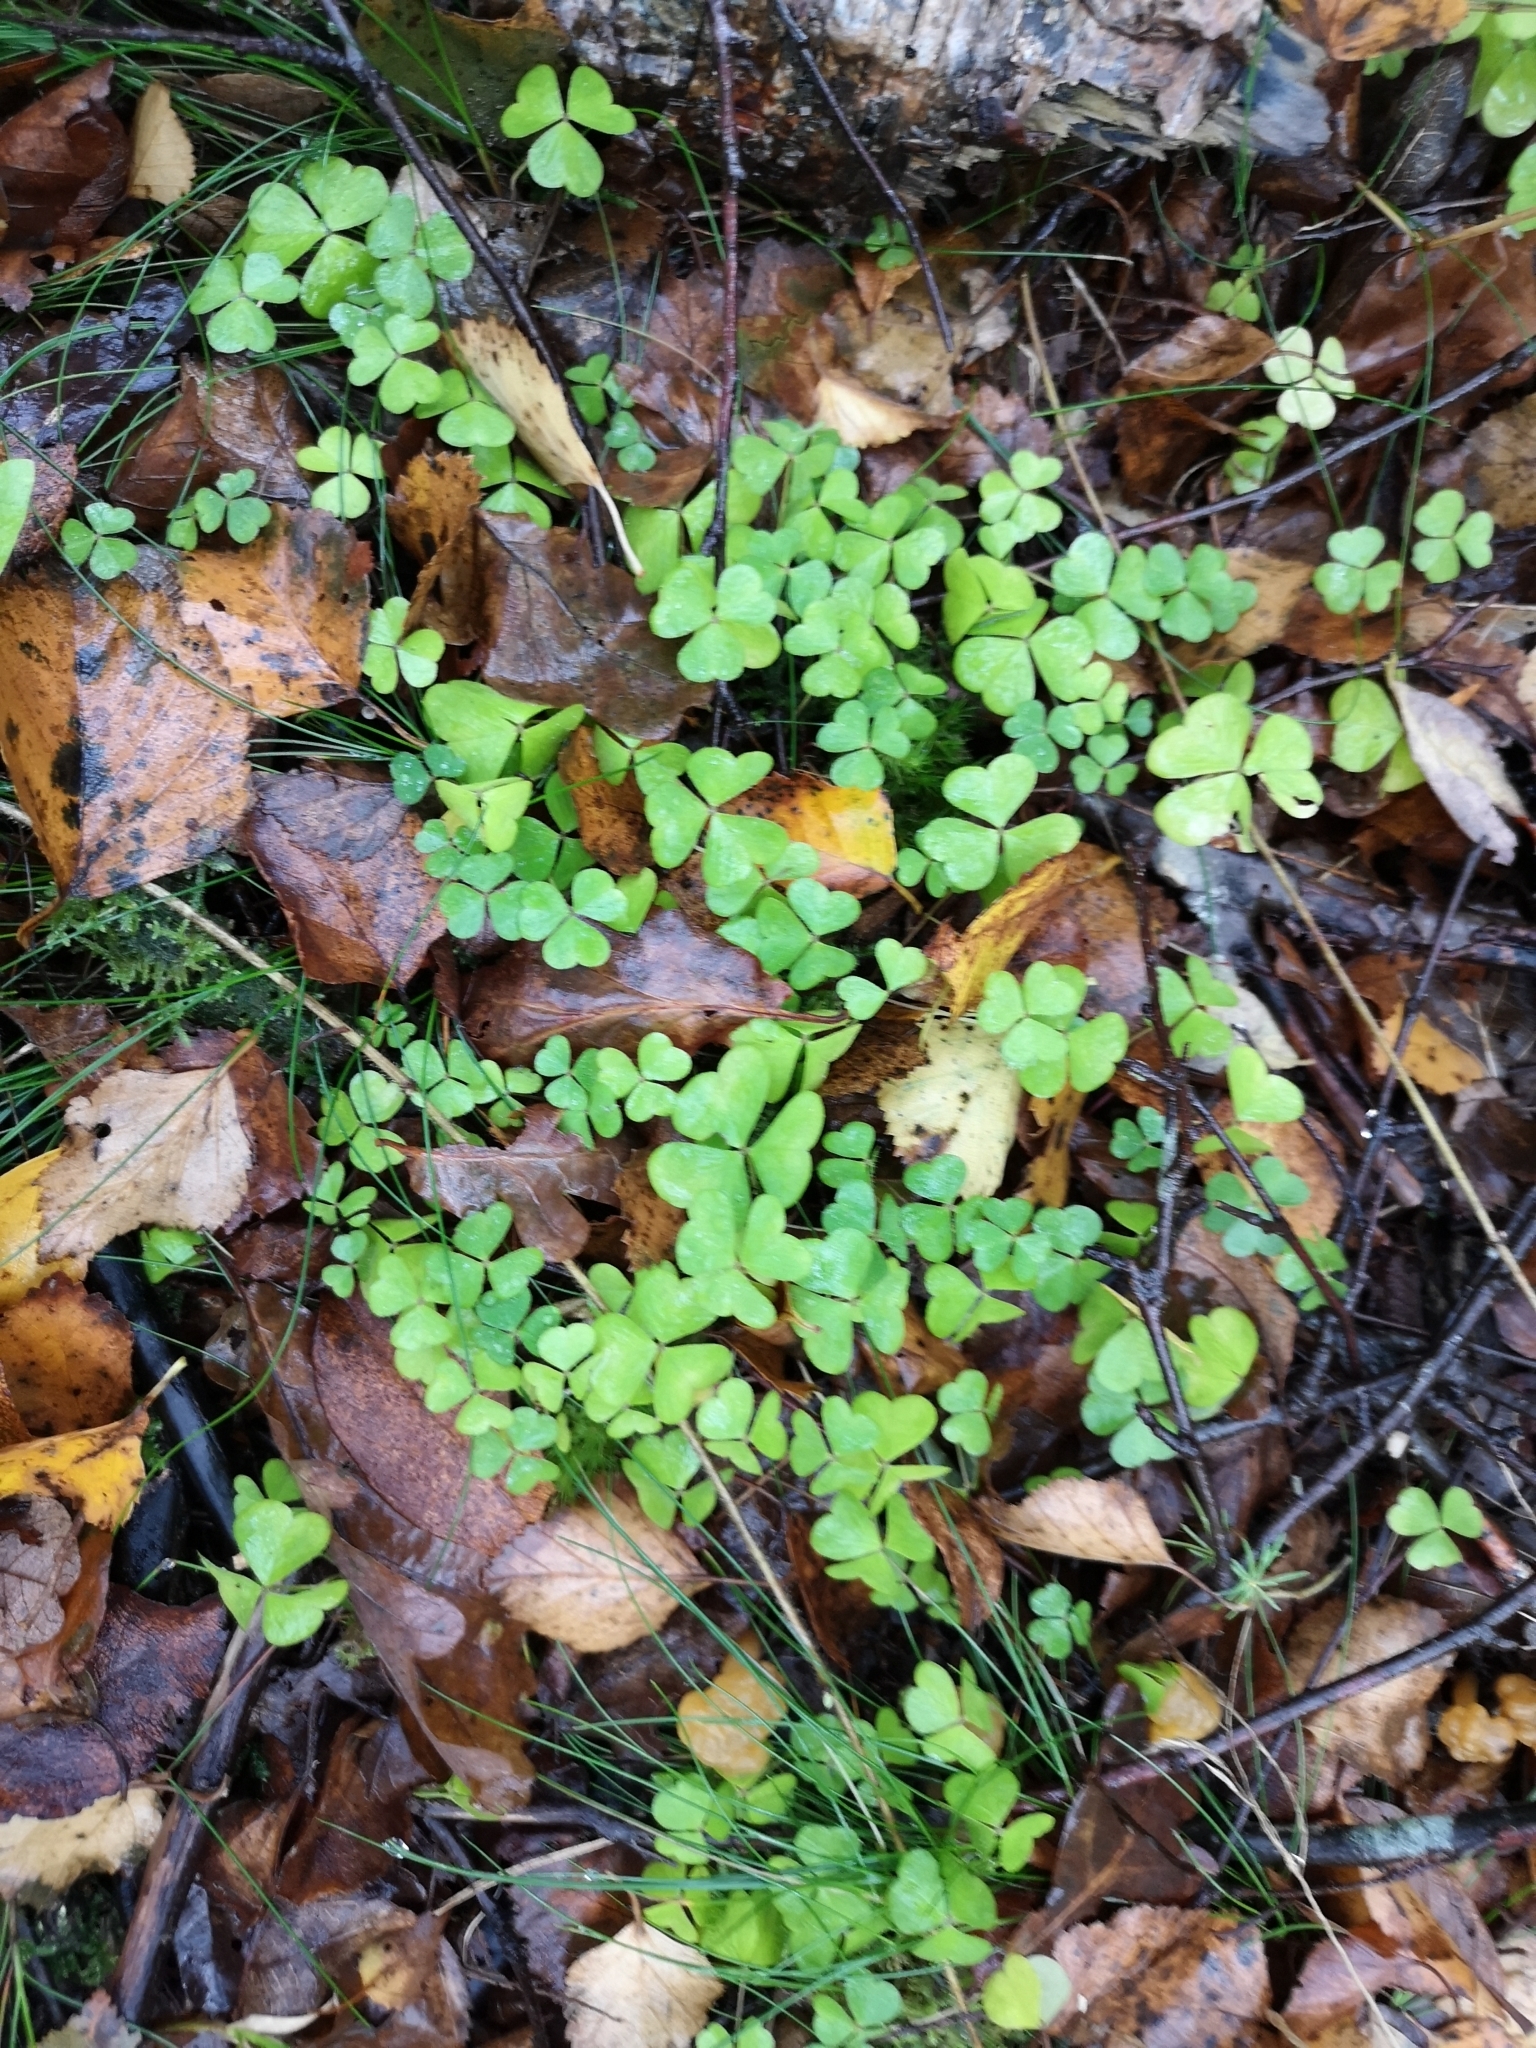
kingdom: Plantae
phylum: Tracheophyta
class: Magnoliopsida
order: Oxalidales
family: Oxalidaceae
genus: Oxalis
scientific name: Oxalis acetosella
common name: Wood-sorrel
